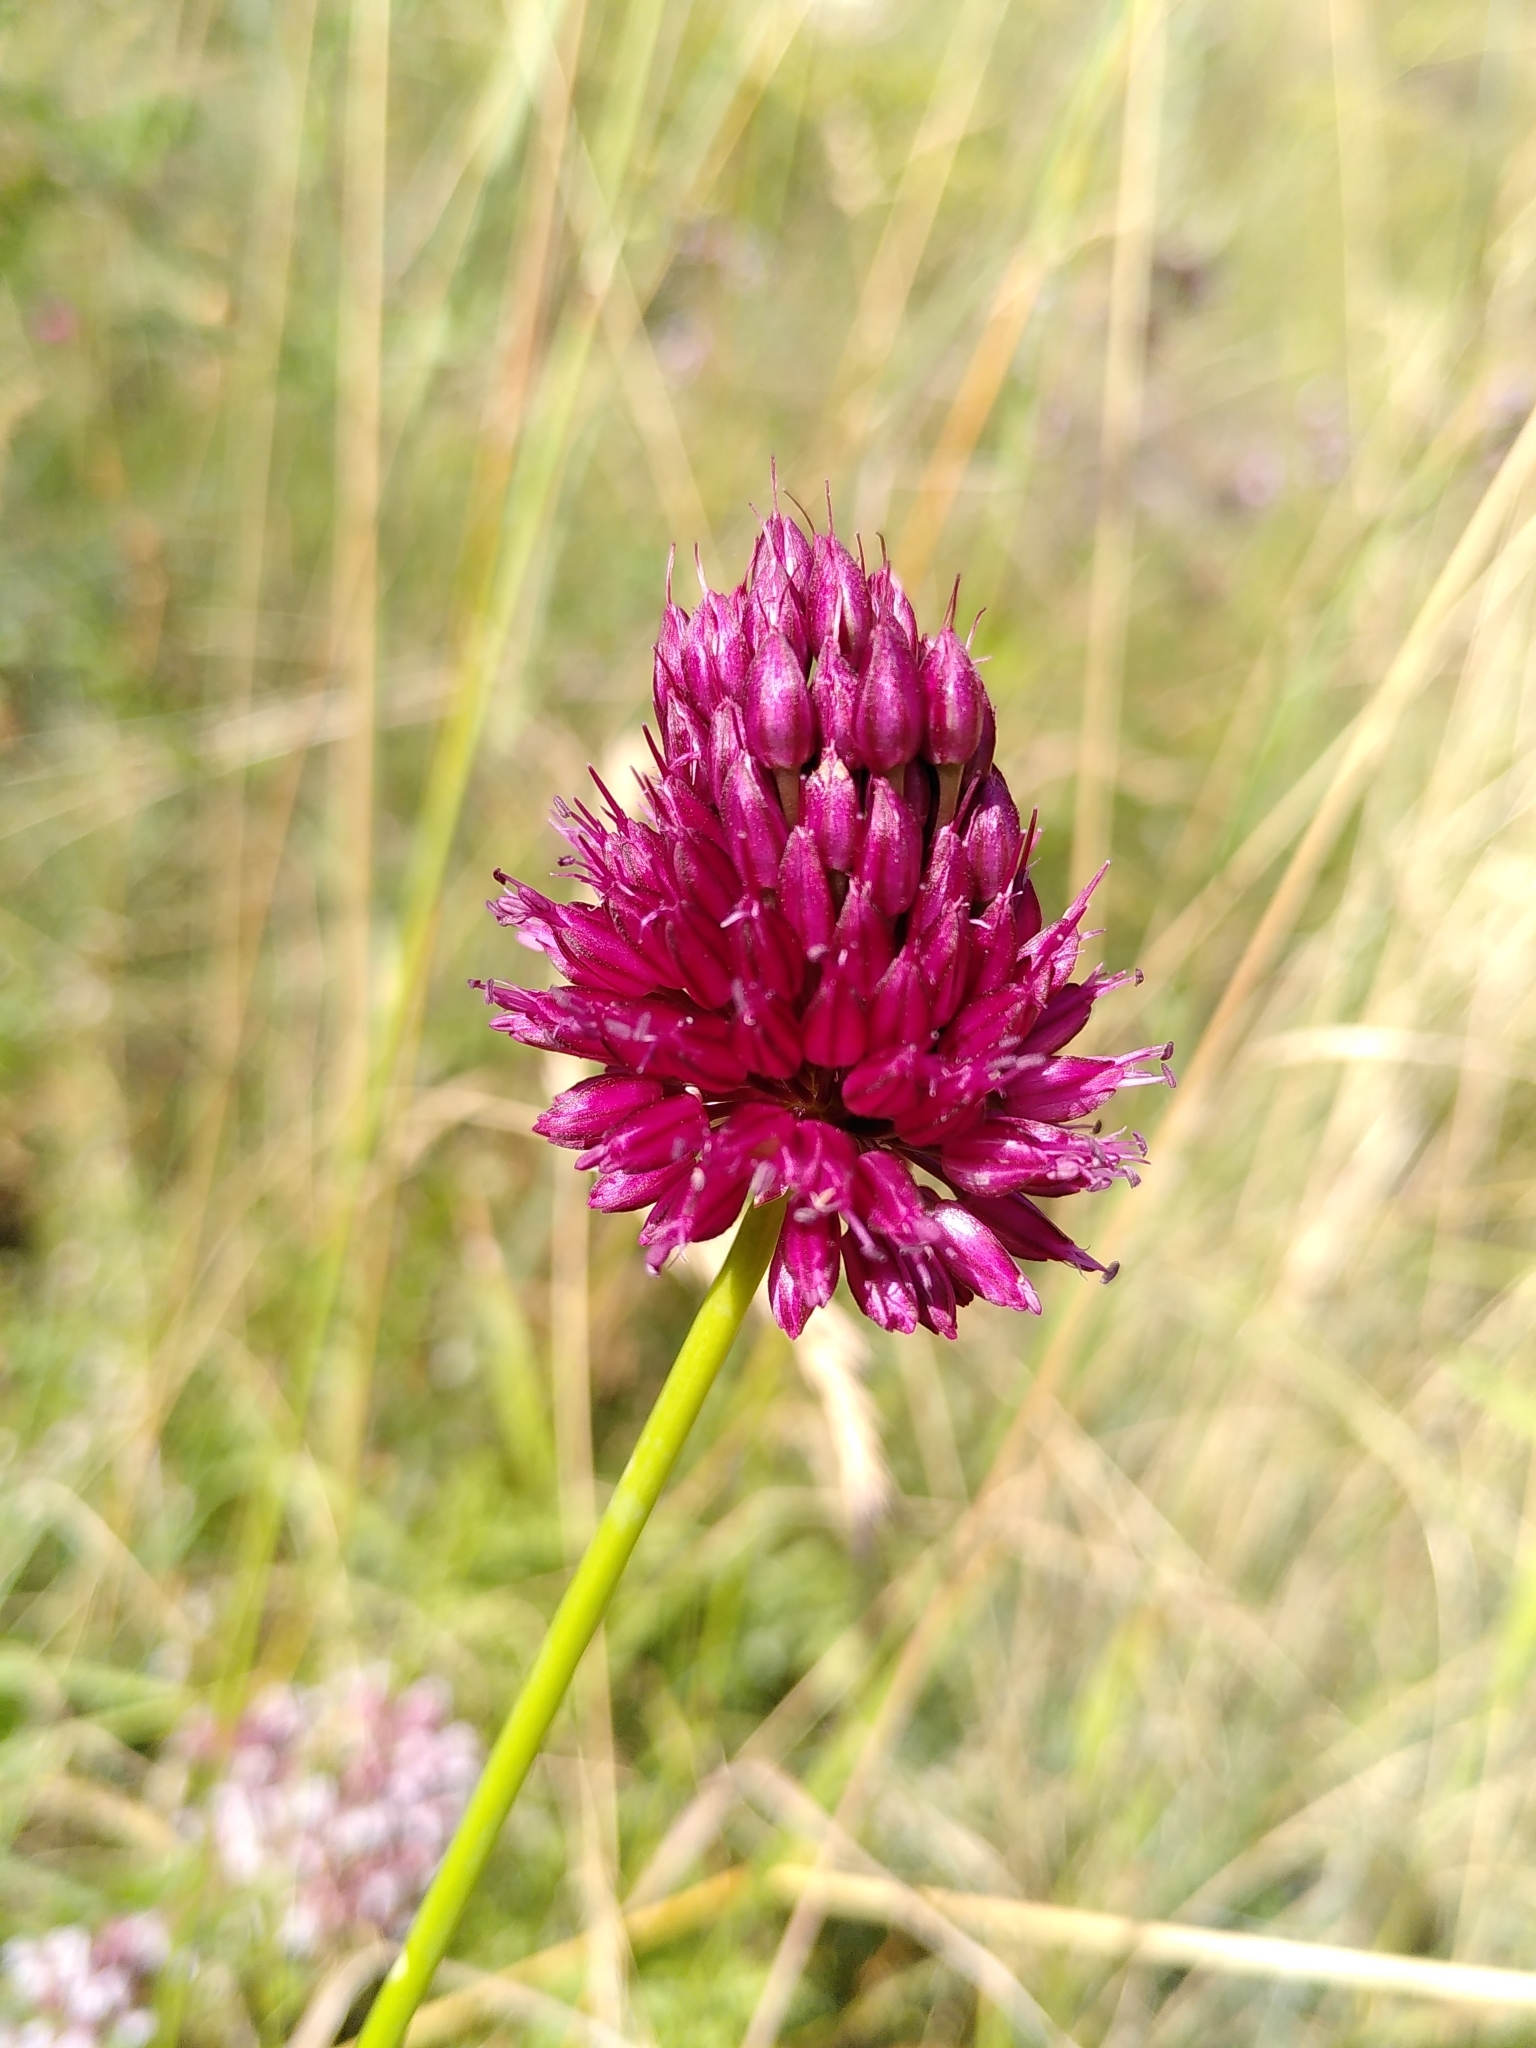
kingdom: Plantae
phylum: Tracheophyta
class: Liliopsida
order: Asparagales
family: Amaryllidaceae
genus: Allium
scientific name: Allium sphaerocephalon
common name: Round-headed leek
